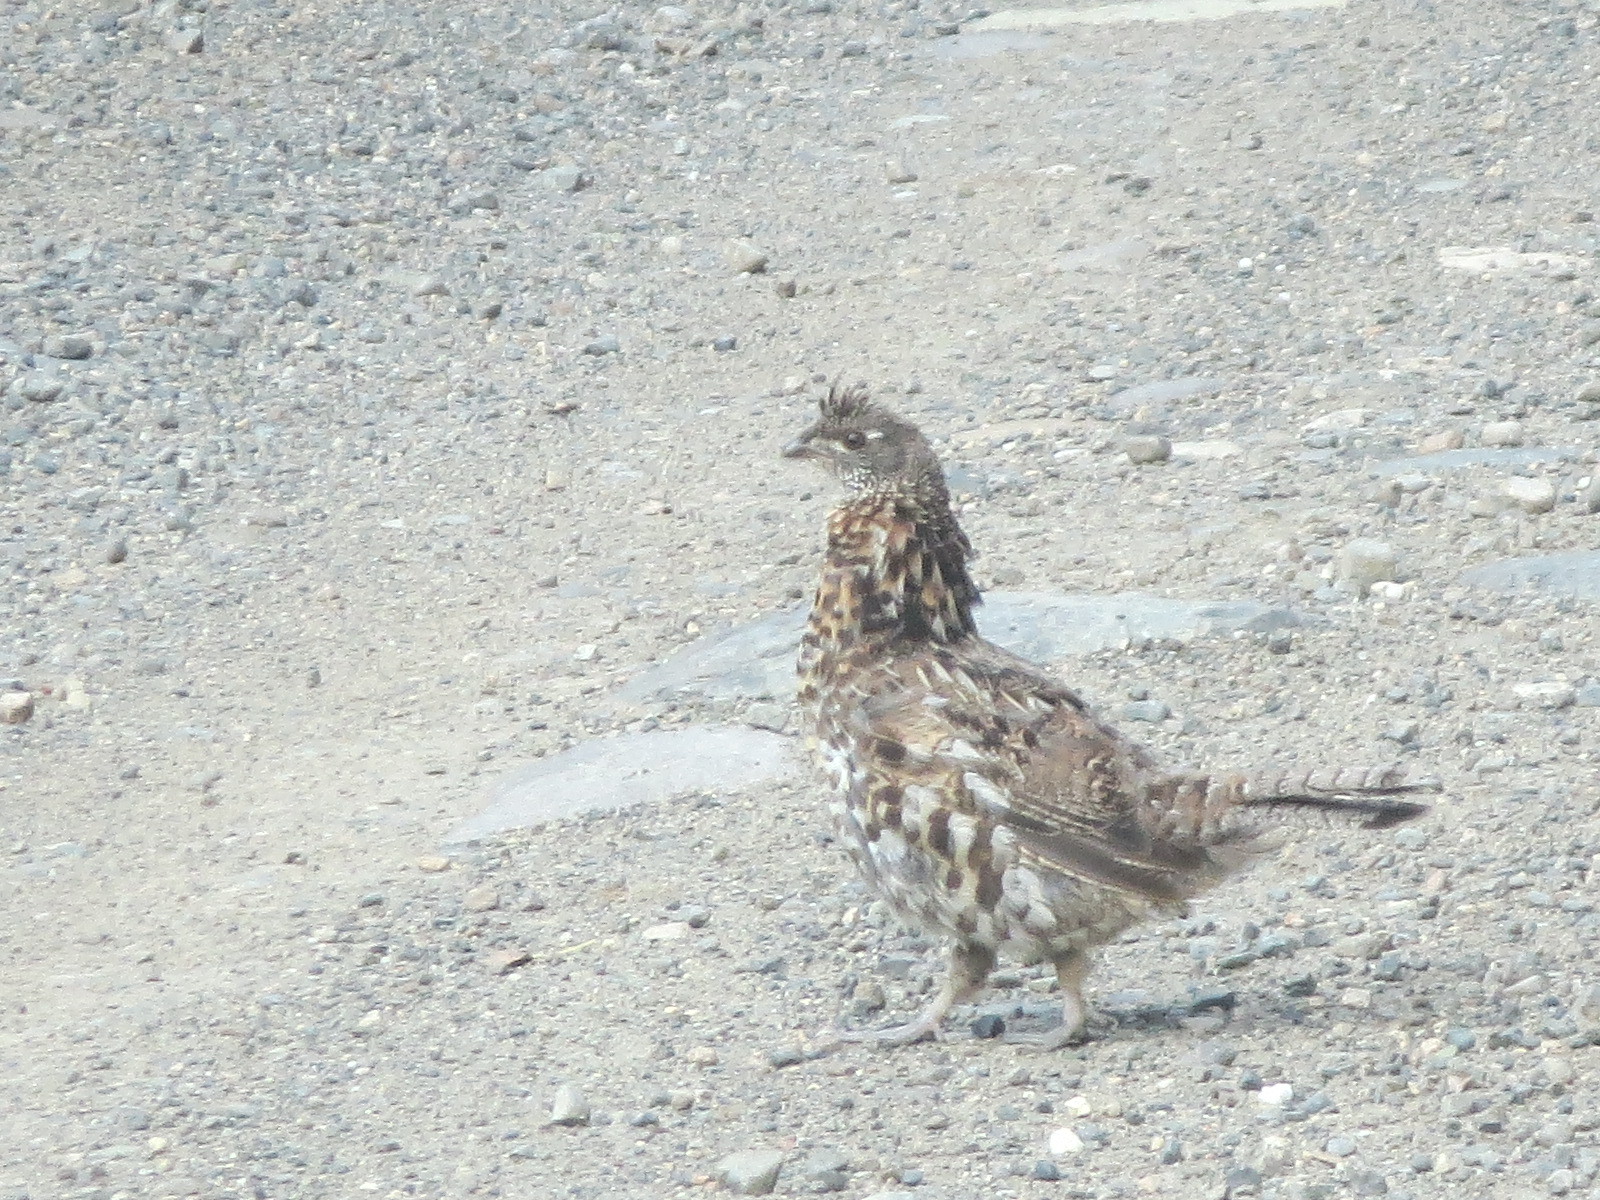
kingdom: Animalia
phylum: Chordata
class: Aves
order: Galliformes
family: Phasianidae
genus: Bonasa
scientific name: Bonasa umbellus
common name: Ruffed grouse
